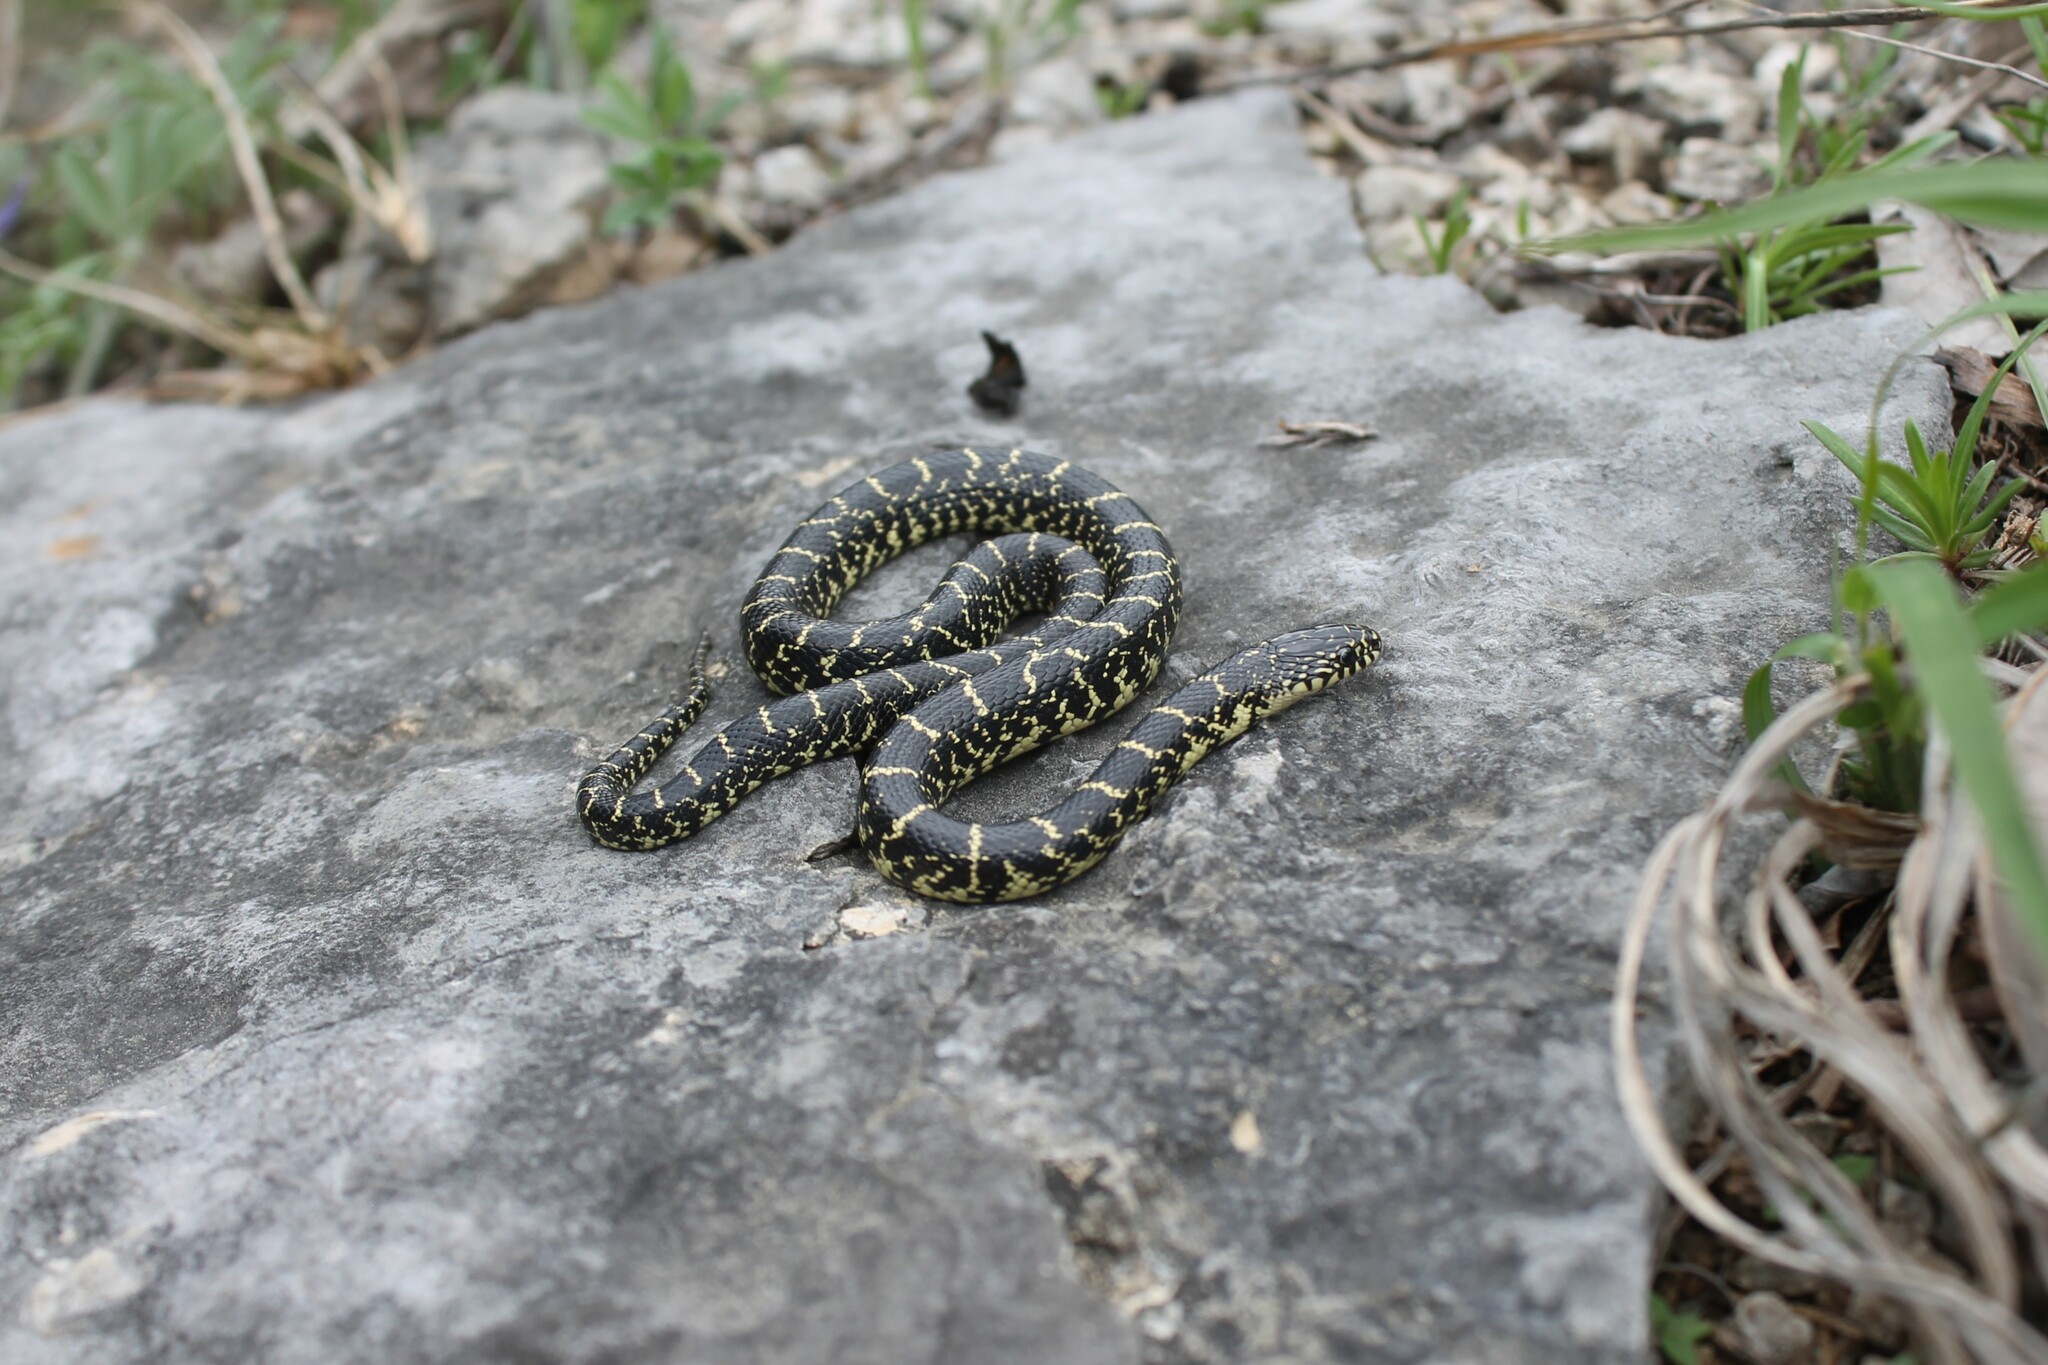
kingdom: Animalia
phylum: Chordata
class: Squamata
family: Colubridae
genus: Lampropeltis
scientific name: Lampropeltis nigra
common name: Black kingsnake
